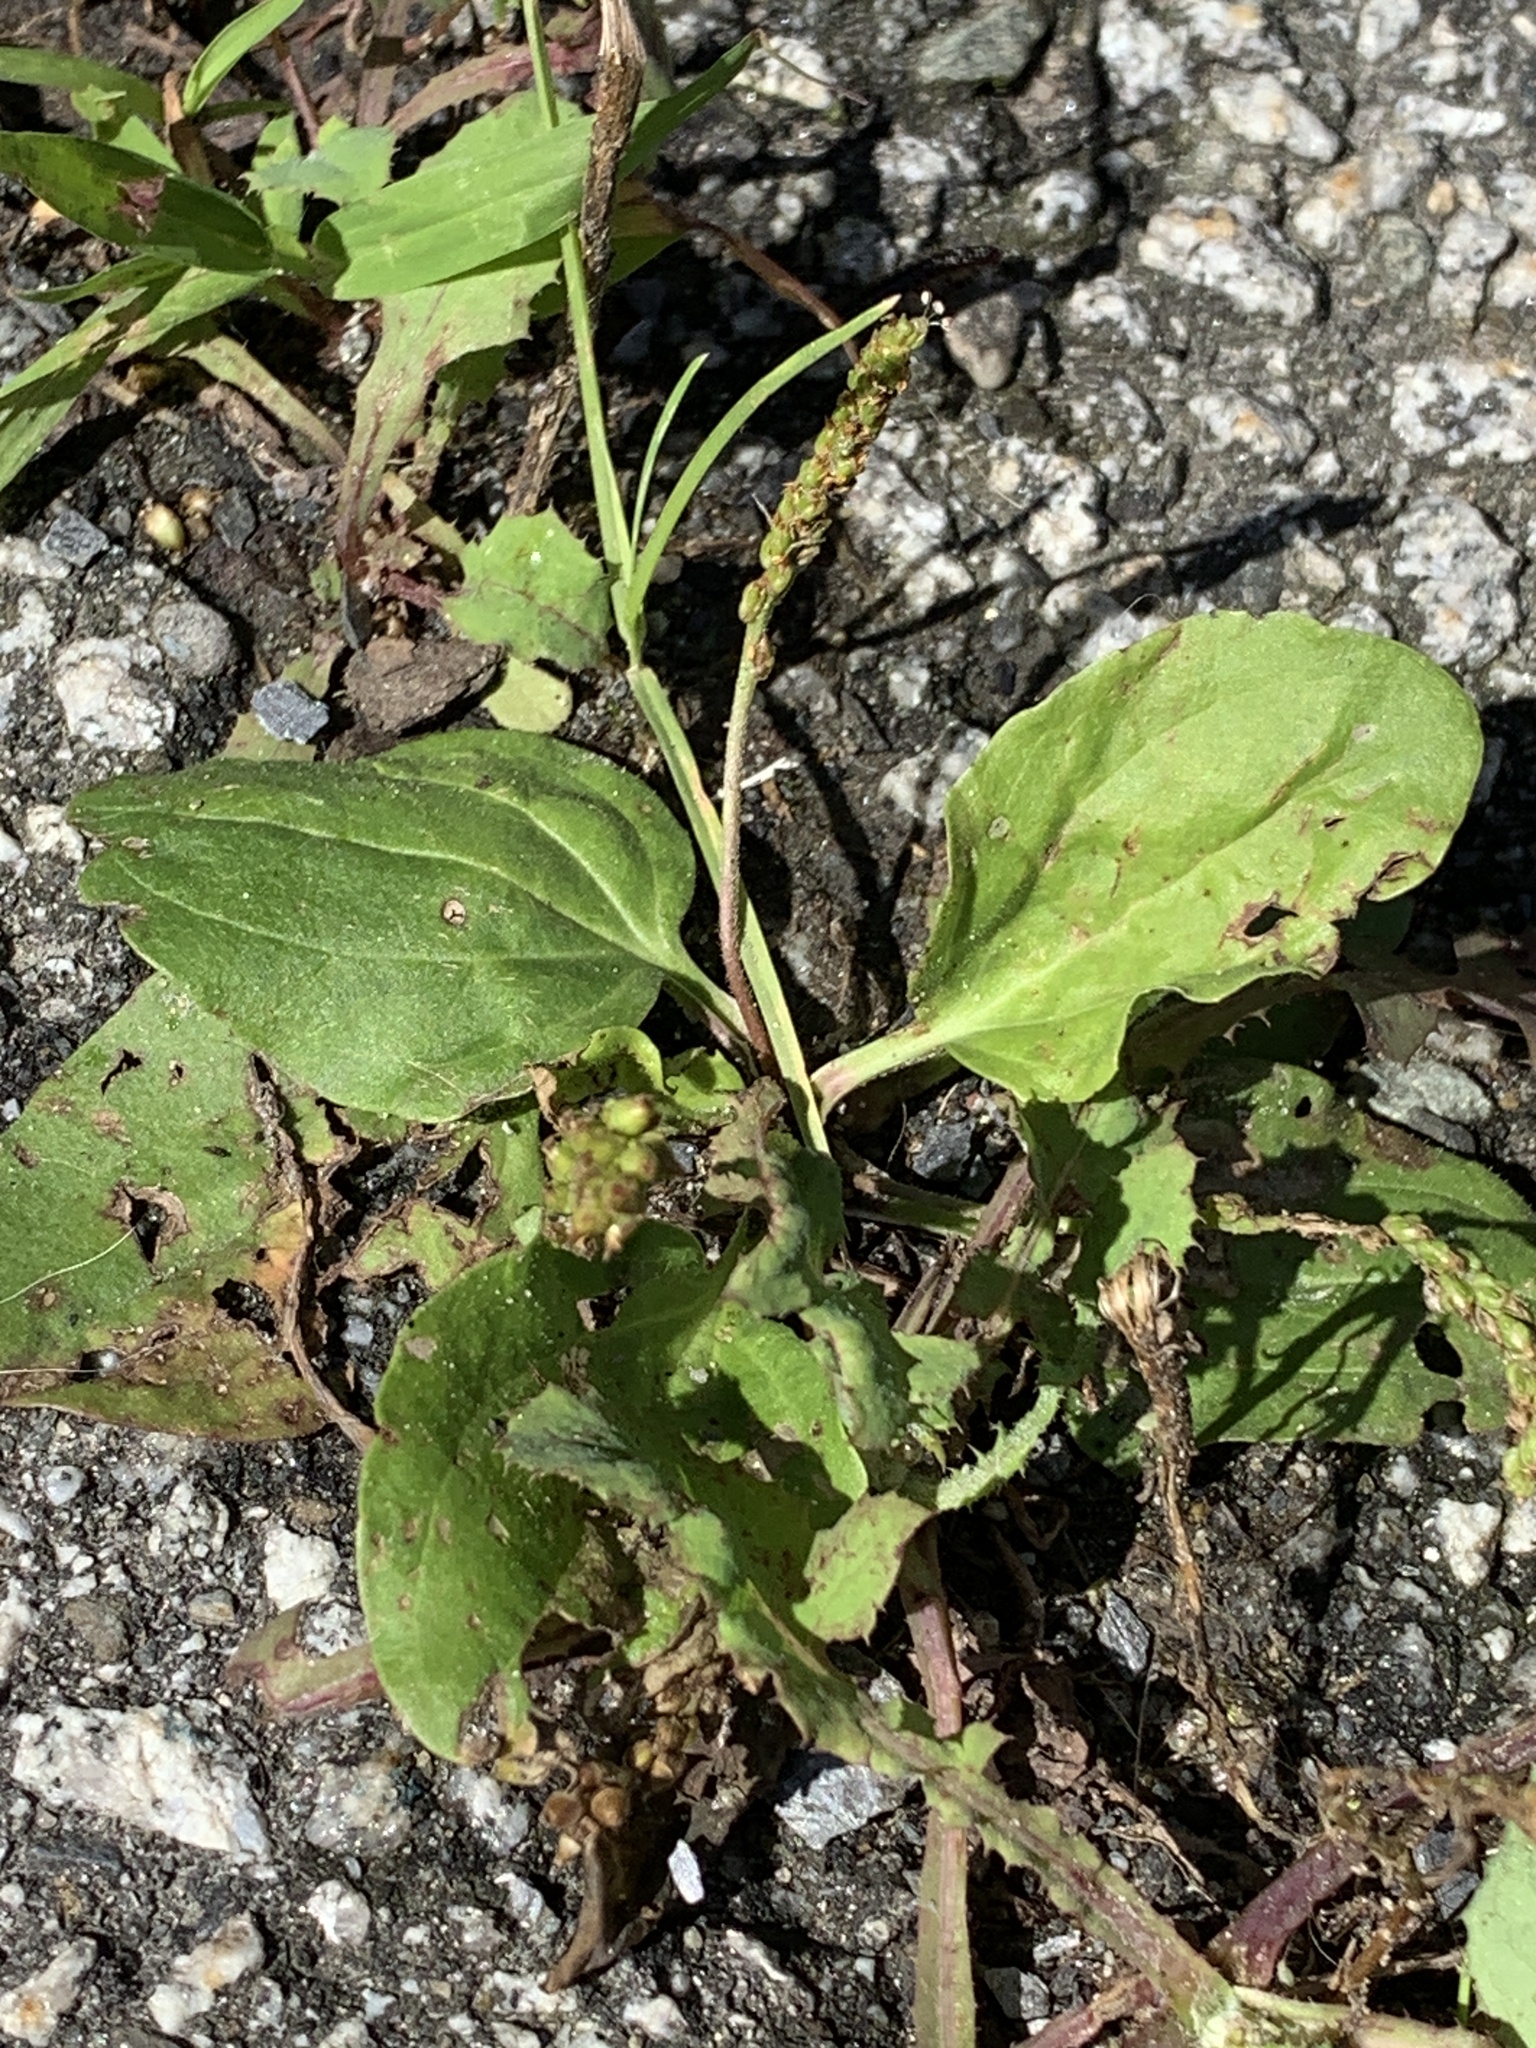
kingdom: Plantae
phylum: Tracheophyta
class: Magnoliopsida
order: Lamiales
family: Plantaginaceae
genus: Plantago
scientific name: Plantago major
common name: Common plantain
